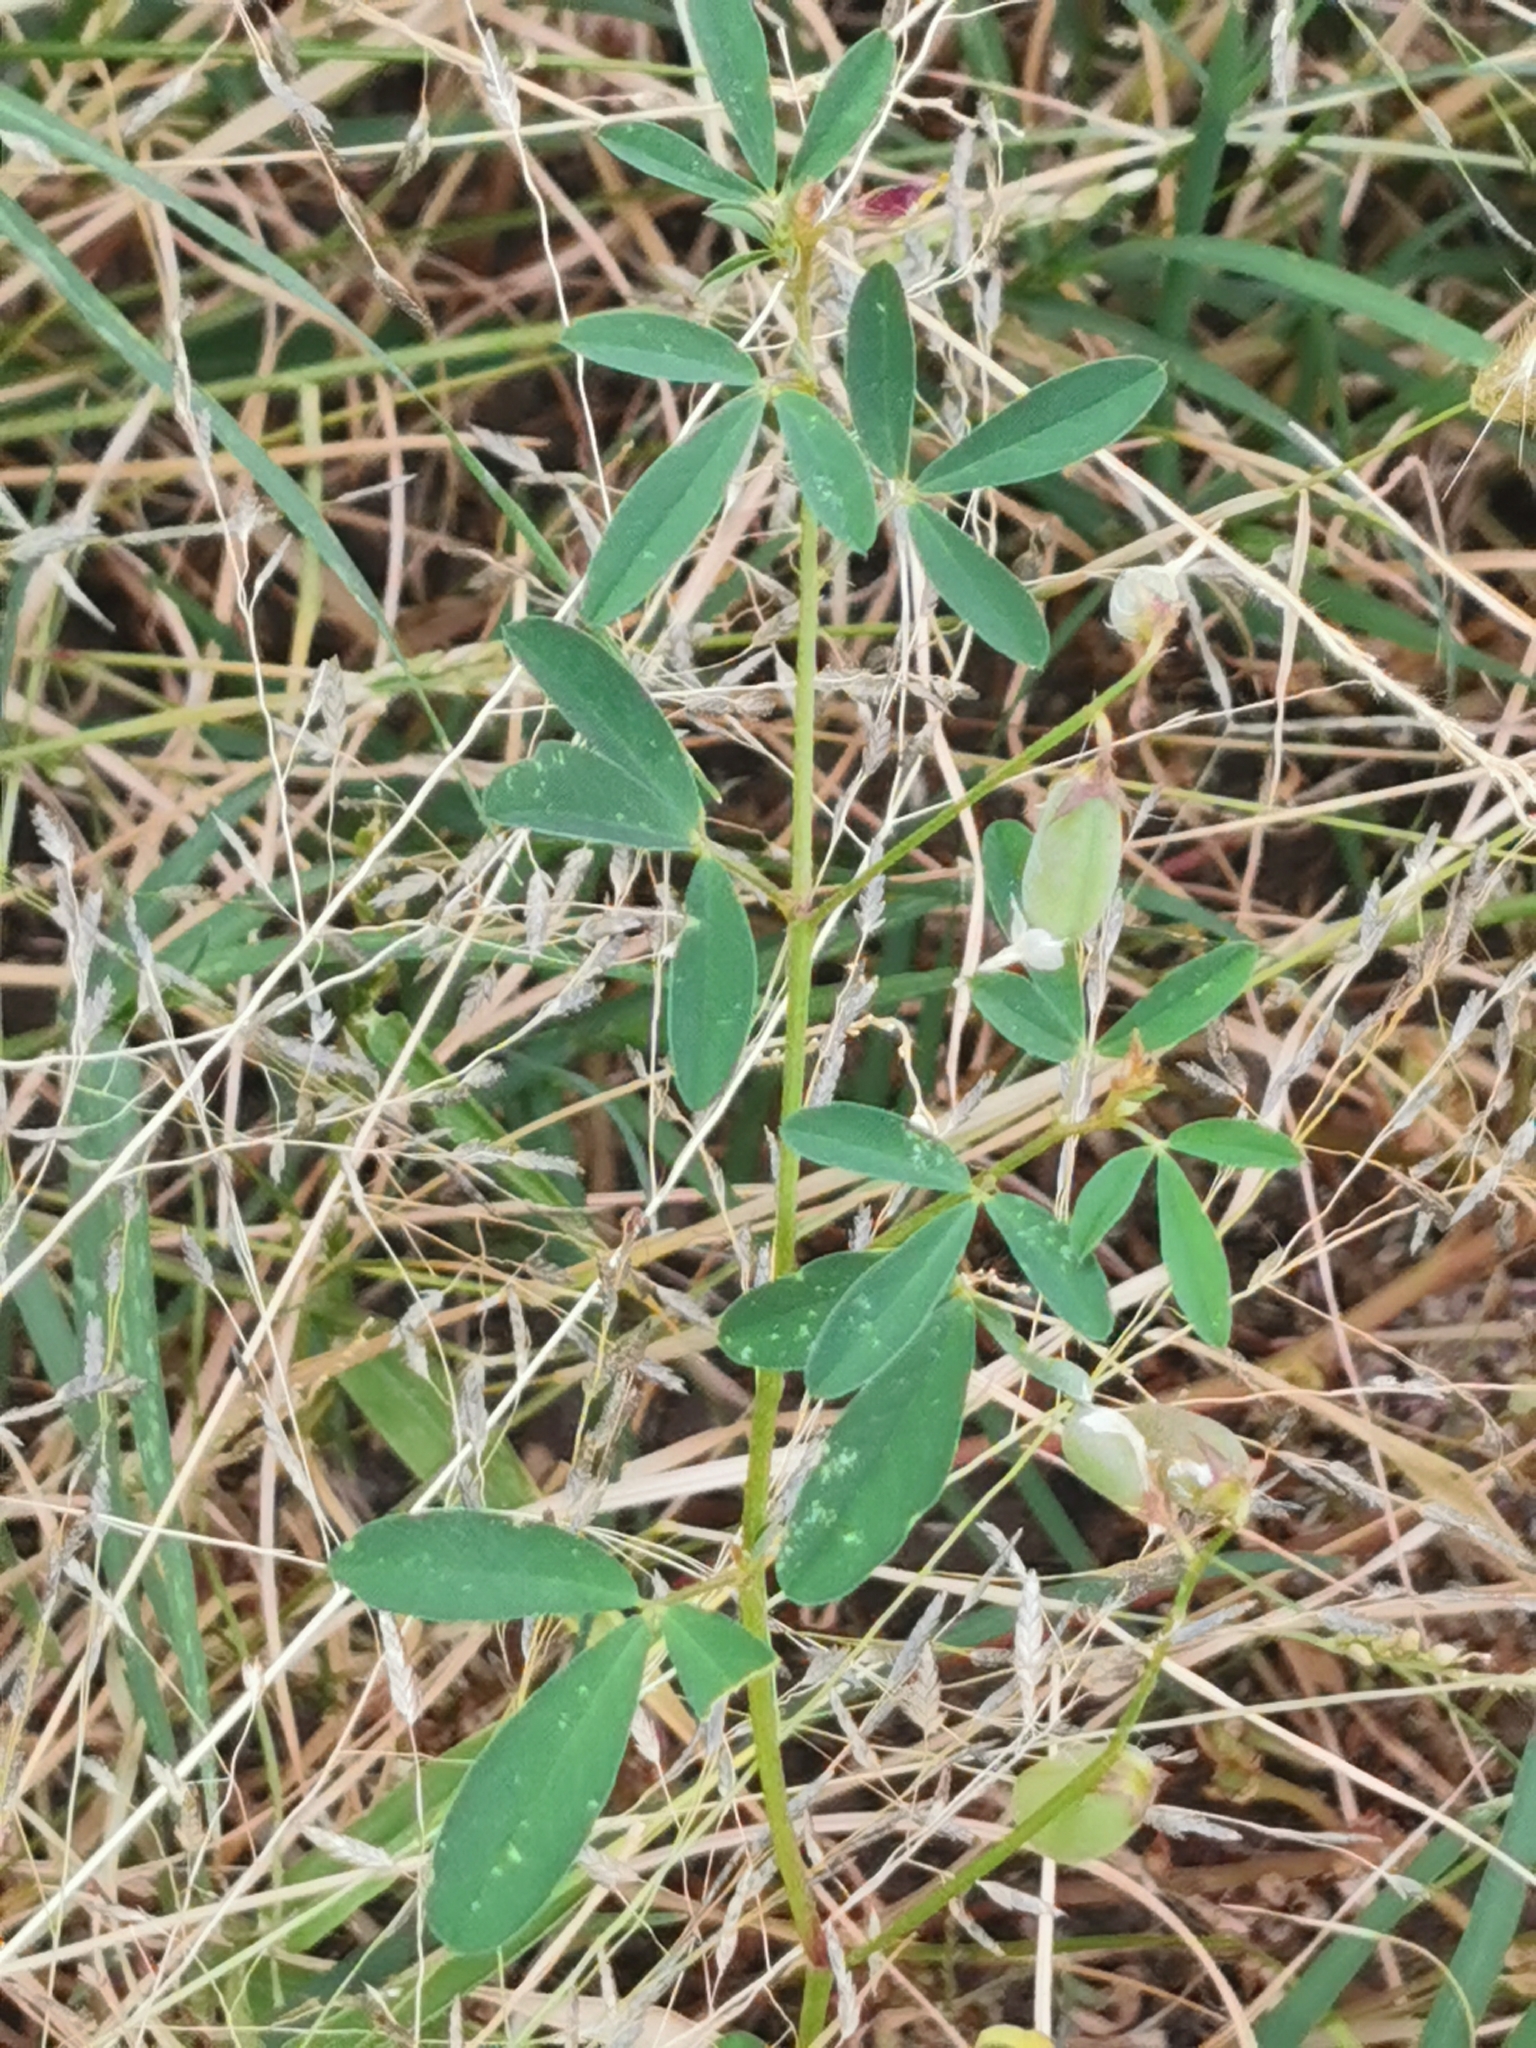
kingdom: Plantae
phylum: Tracheophyta
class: Magnoliopsida
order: Fabales
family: Fabaceae
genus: Crotalaria
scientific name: Crotalaria pumila
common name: Low rattlebox
